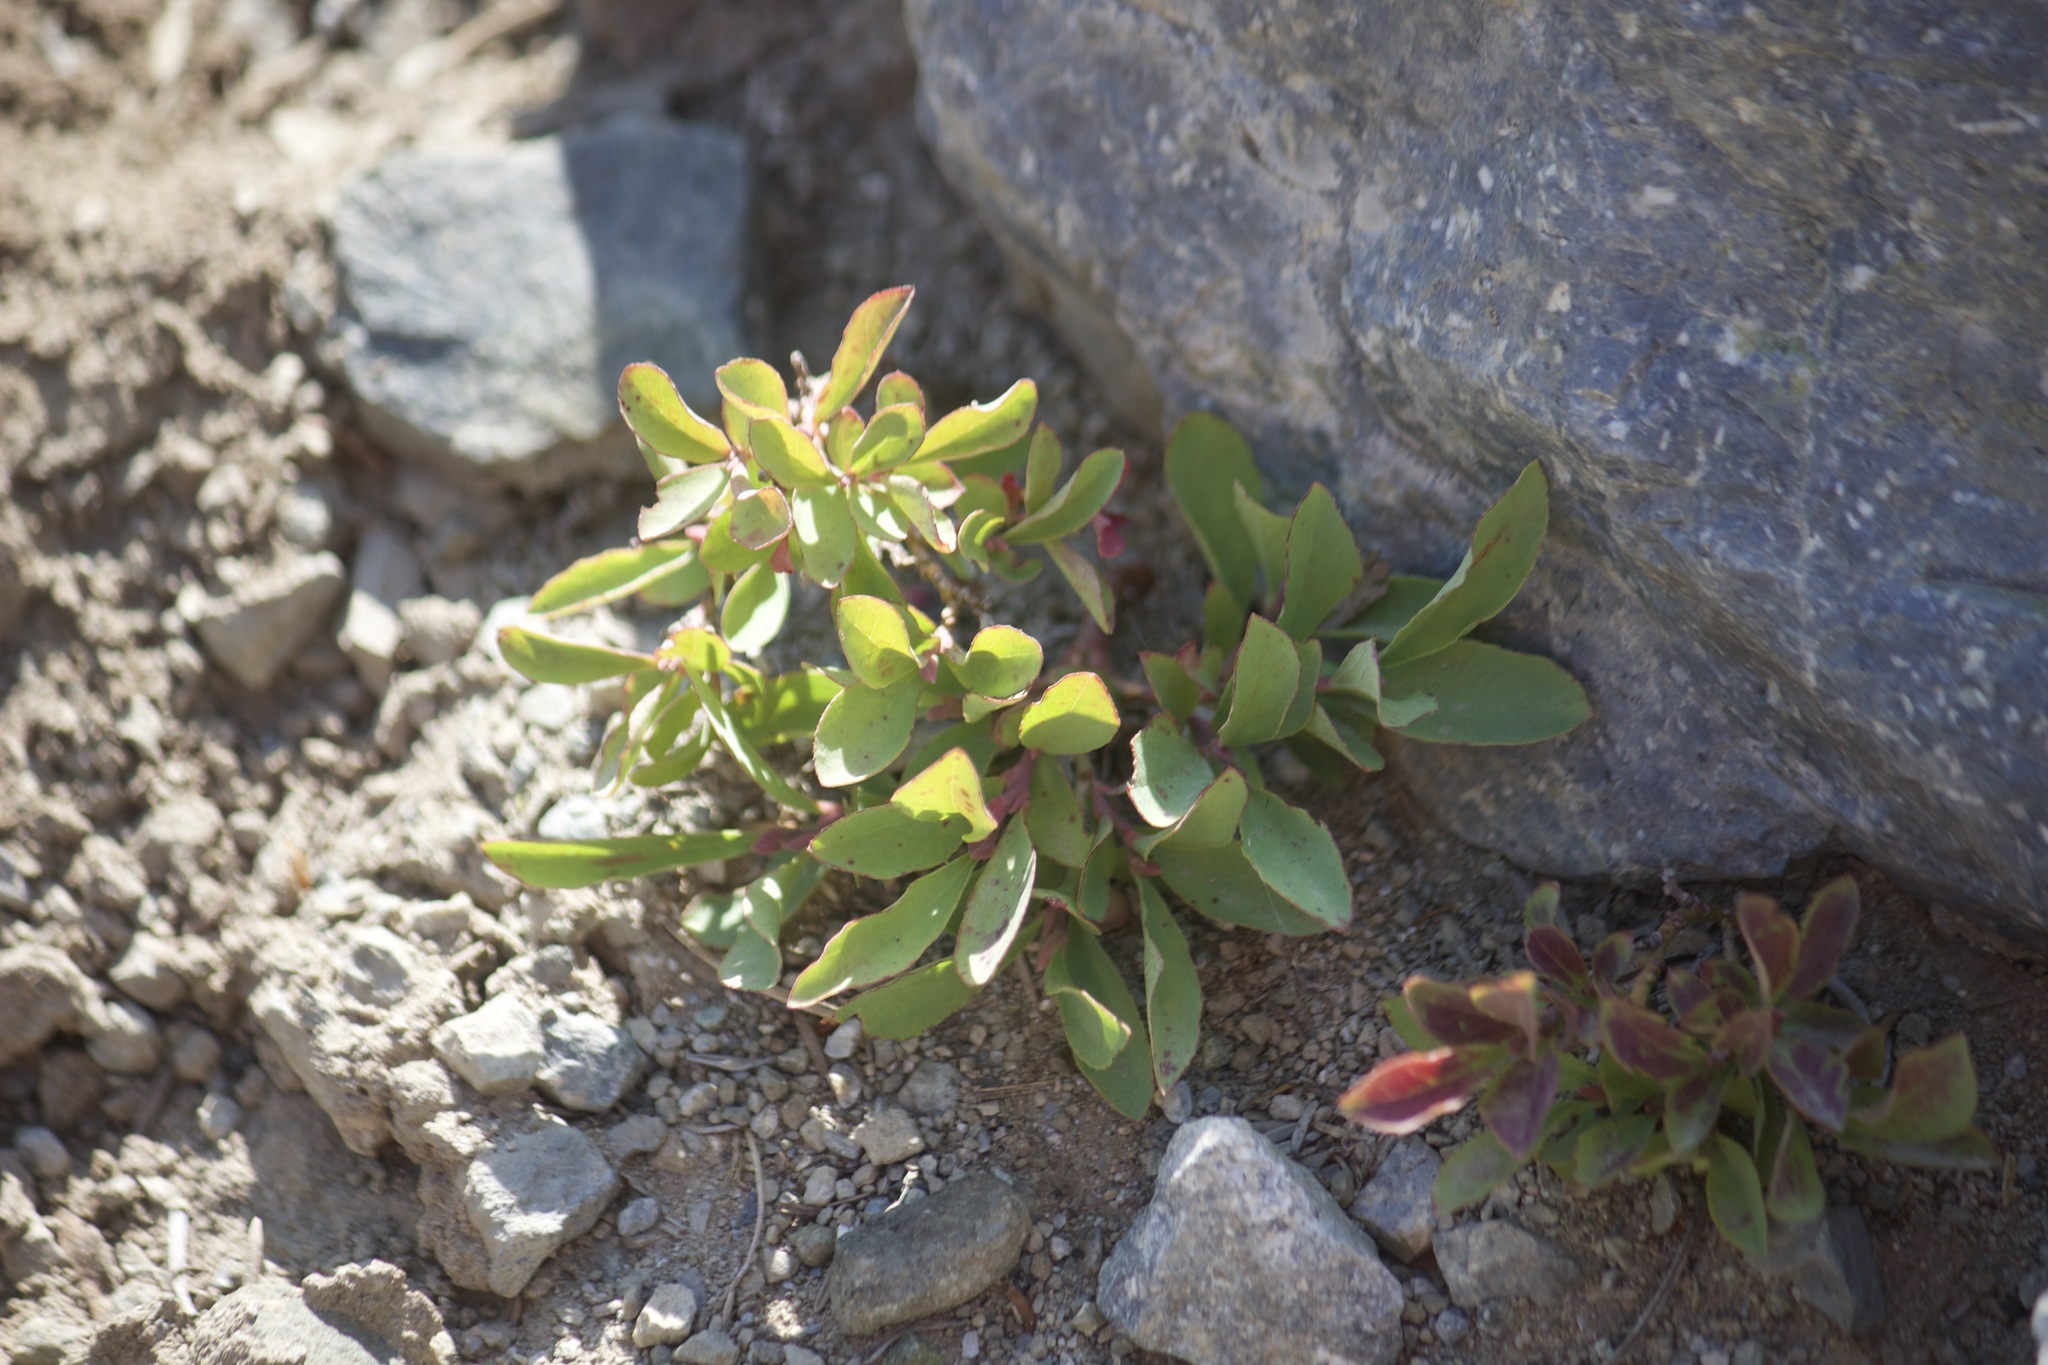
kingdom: Plantae
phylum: Tracheophyta
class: Magnoliopsida
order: Ericales
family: Ericaceae
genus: Vaccinium
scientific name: Vaccinium cespitosum
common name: Dwarf bilberry
